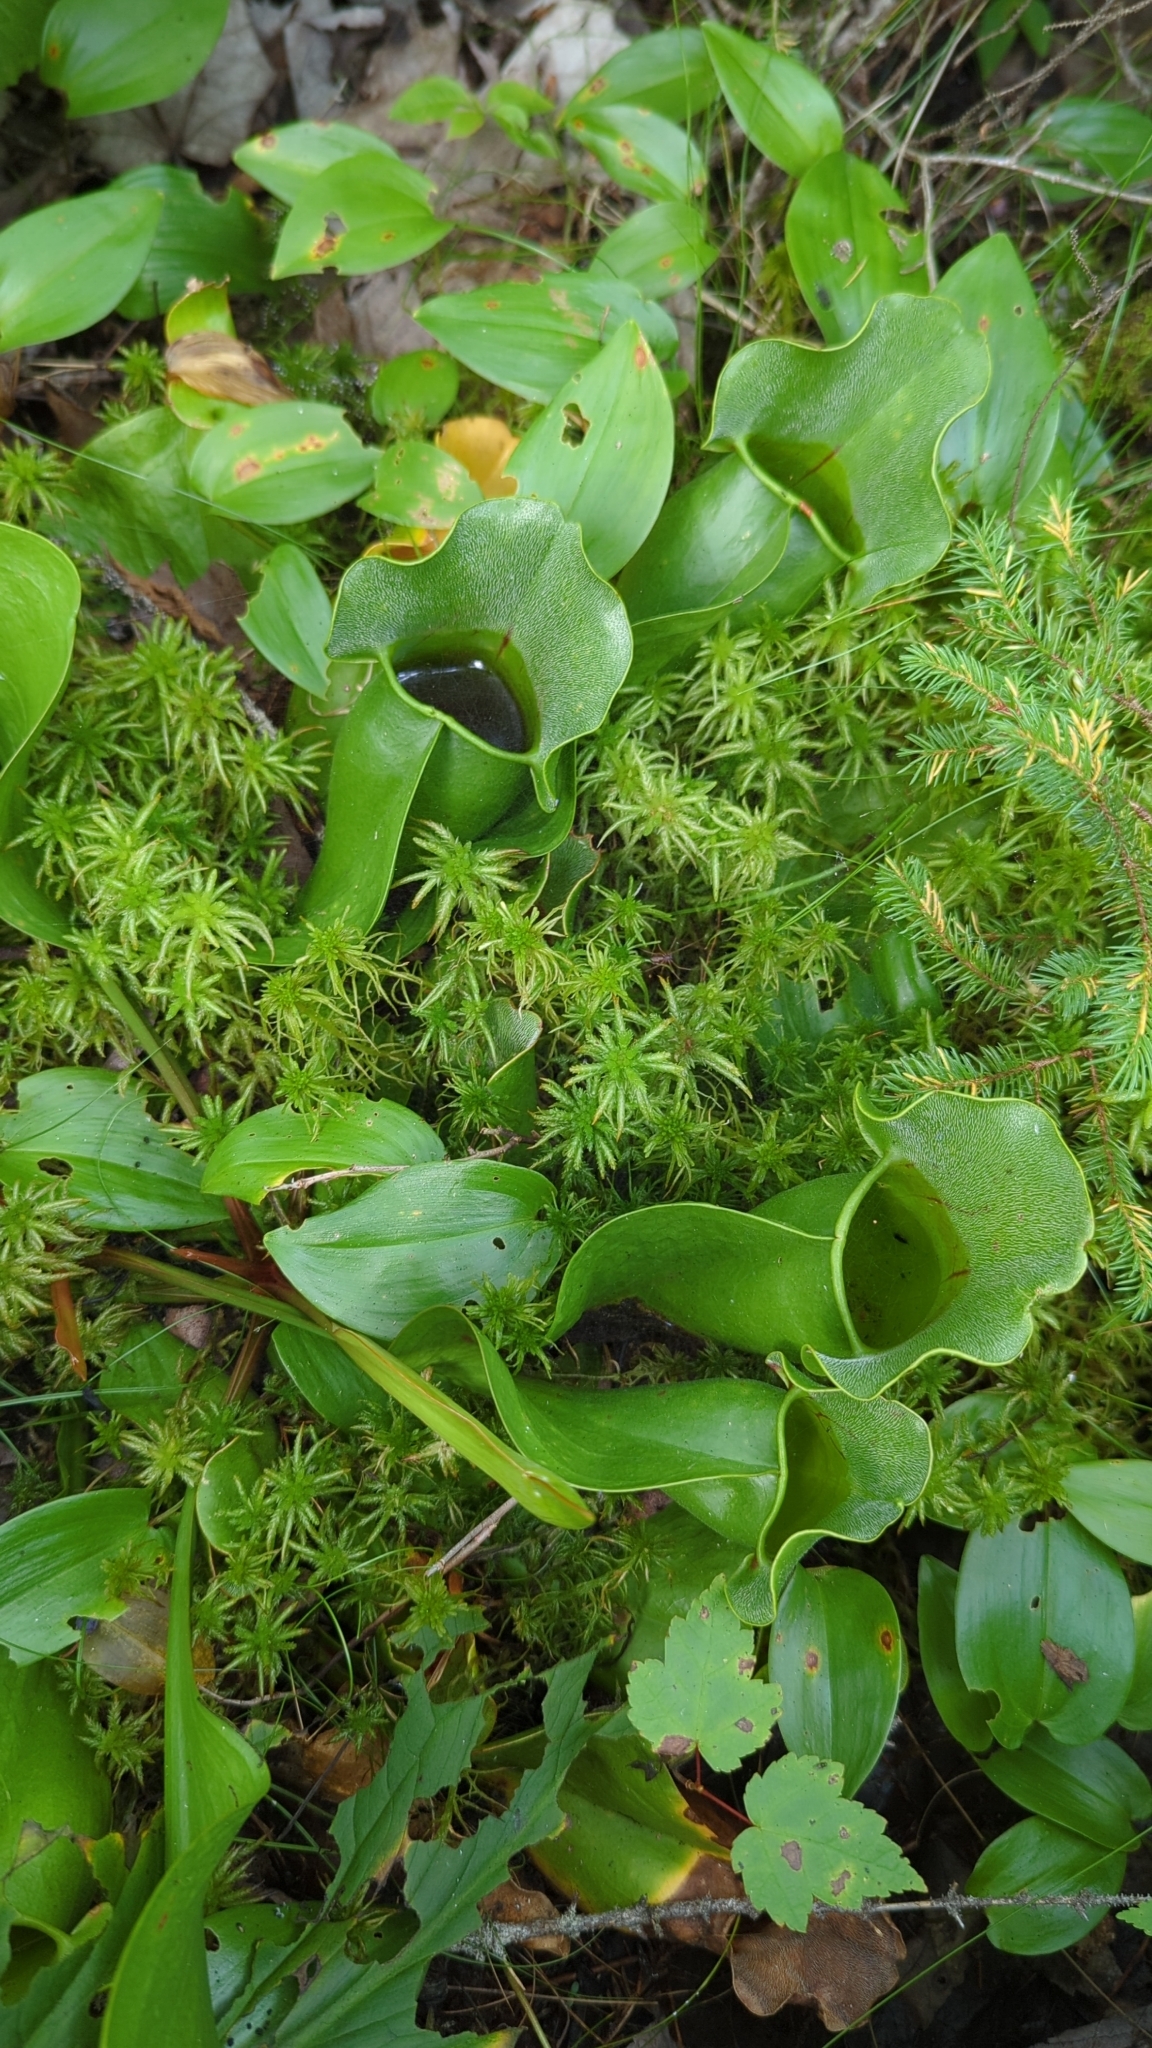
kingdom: Plantae
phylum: Tracheophyta
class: Magnoliopsida
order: Ericales
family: Sarraceniaceae
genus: Sarracenia
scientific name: Sarracenia purpurea
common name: Pitcherplant
